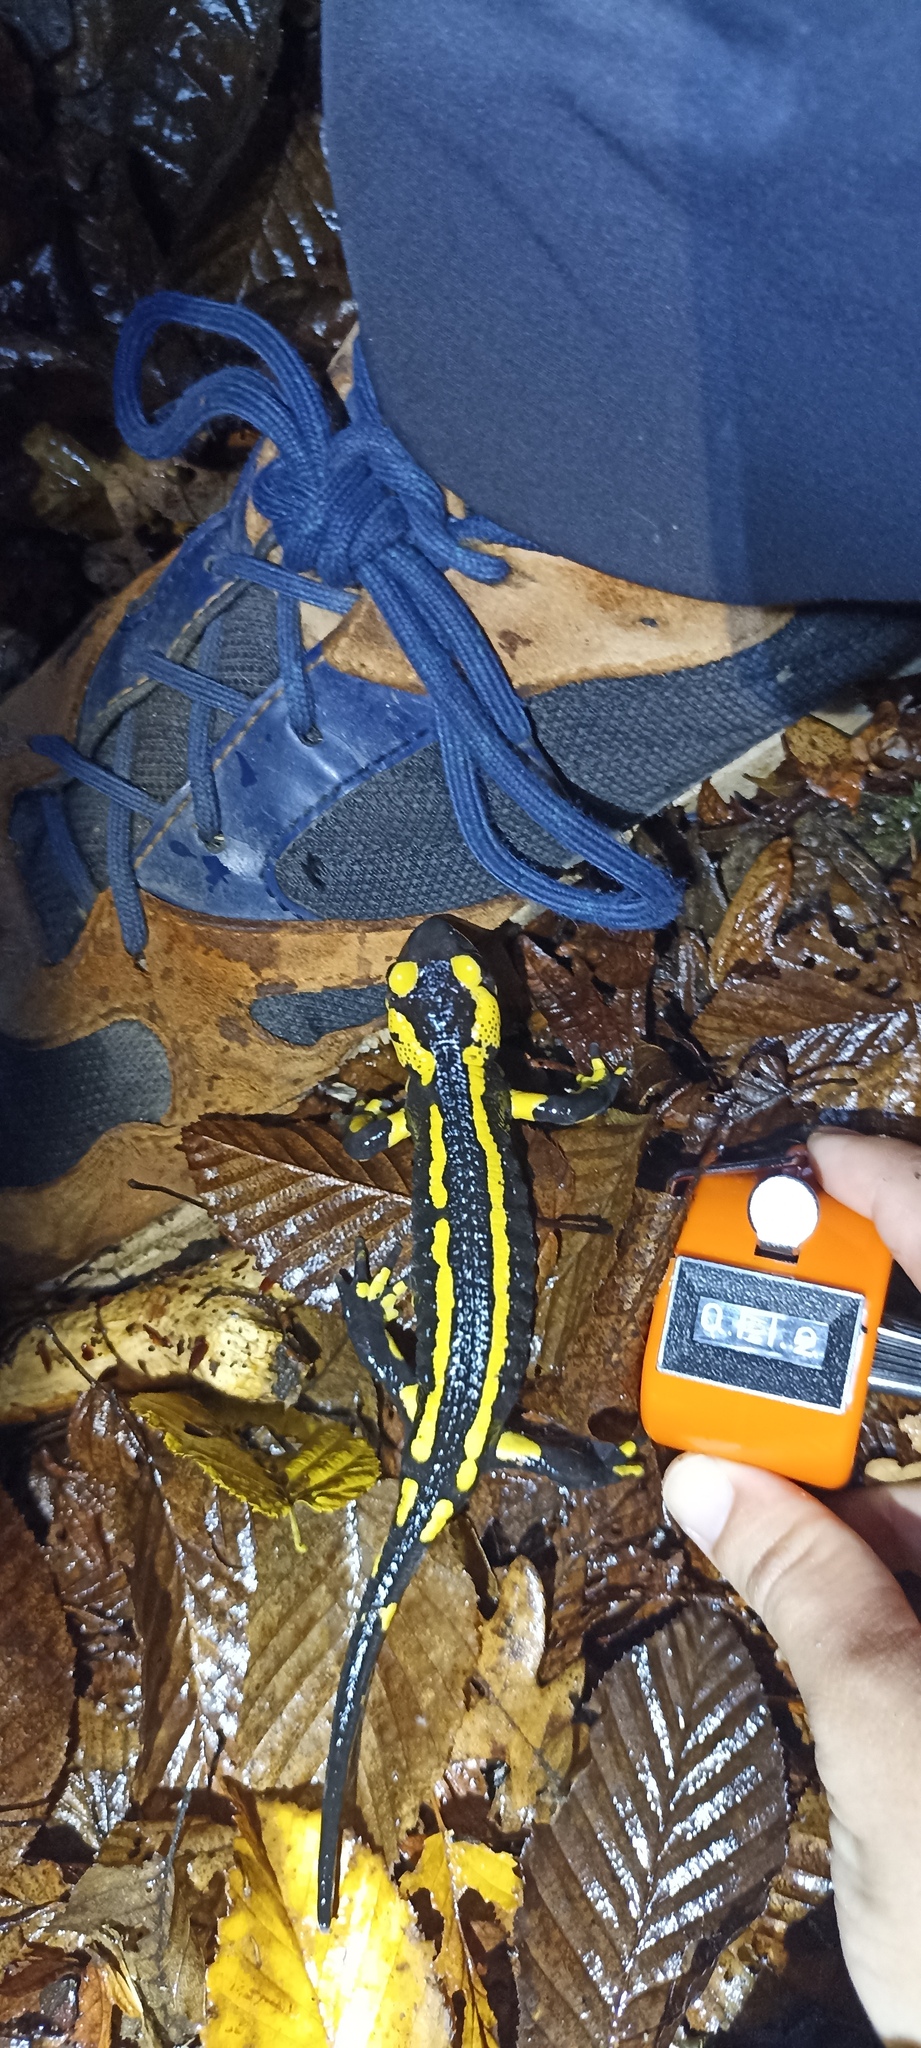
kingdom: Animalia
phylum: Chordata
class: Amphibia
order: Caudata
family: Salamandridae
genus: Salamandra
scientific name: Salamandra salamandra
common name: Fire salamander
